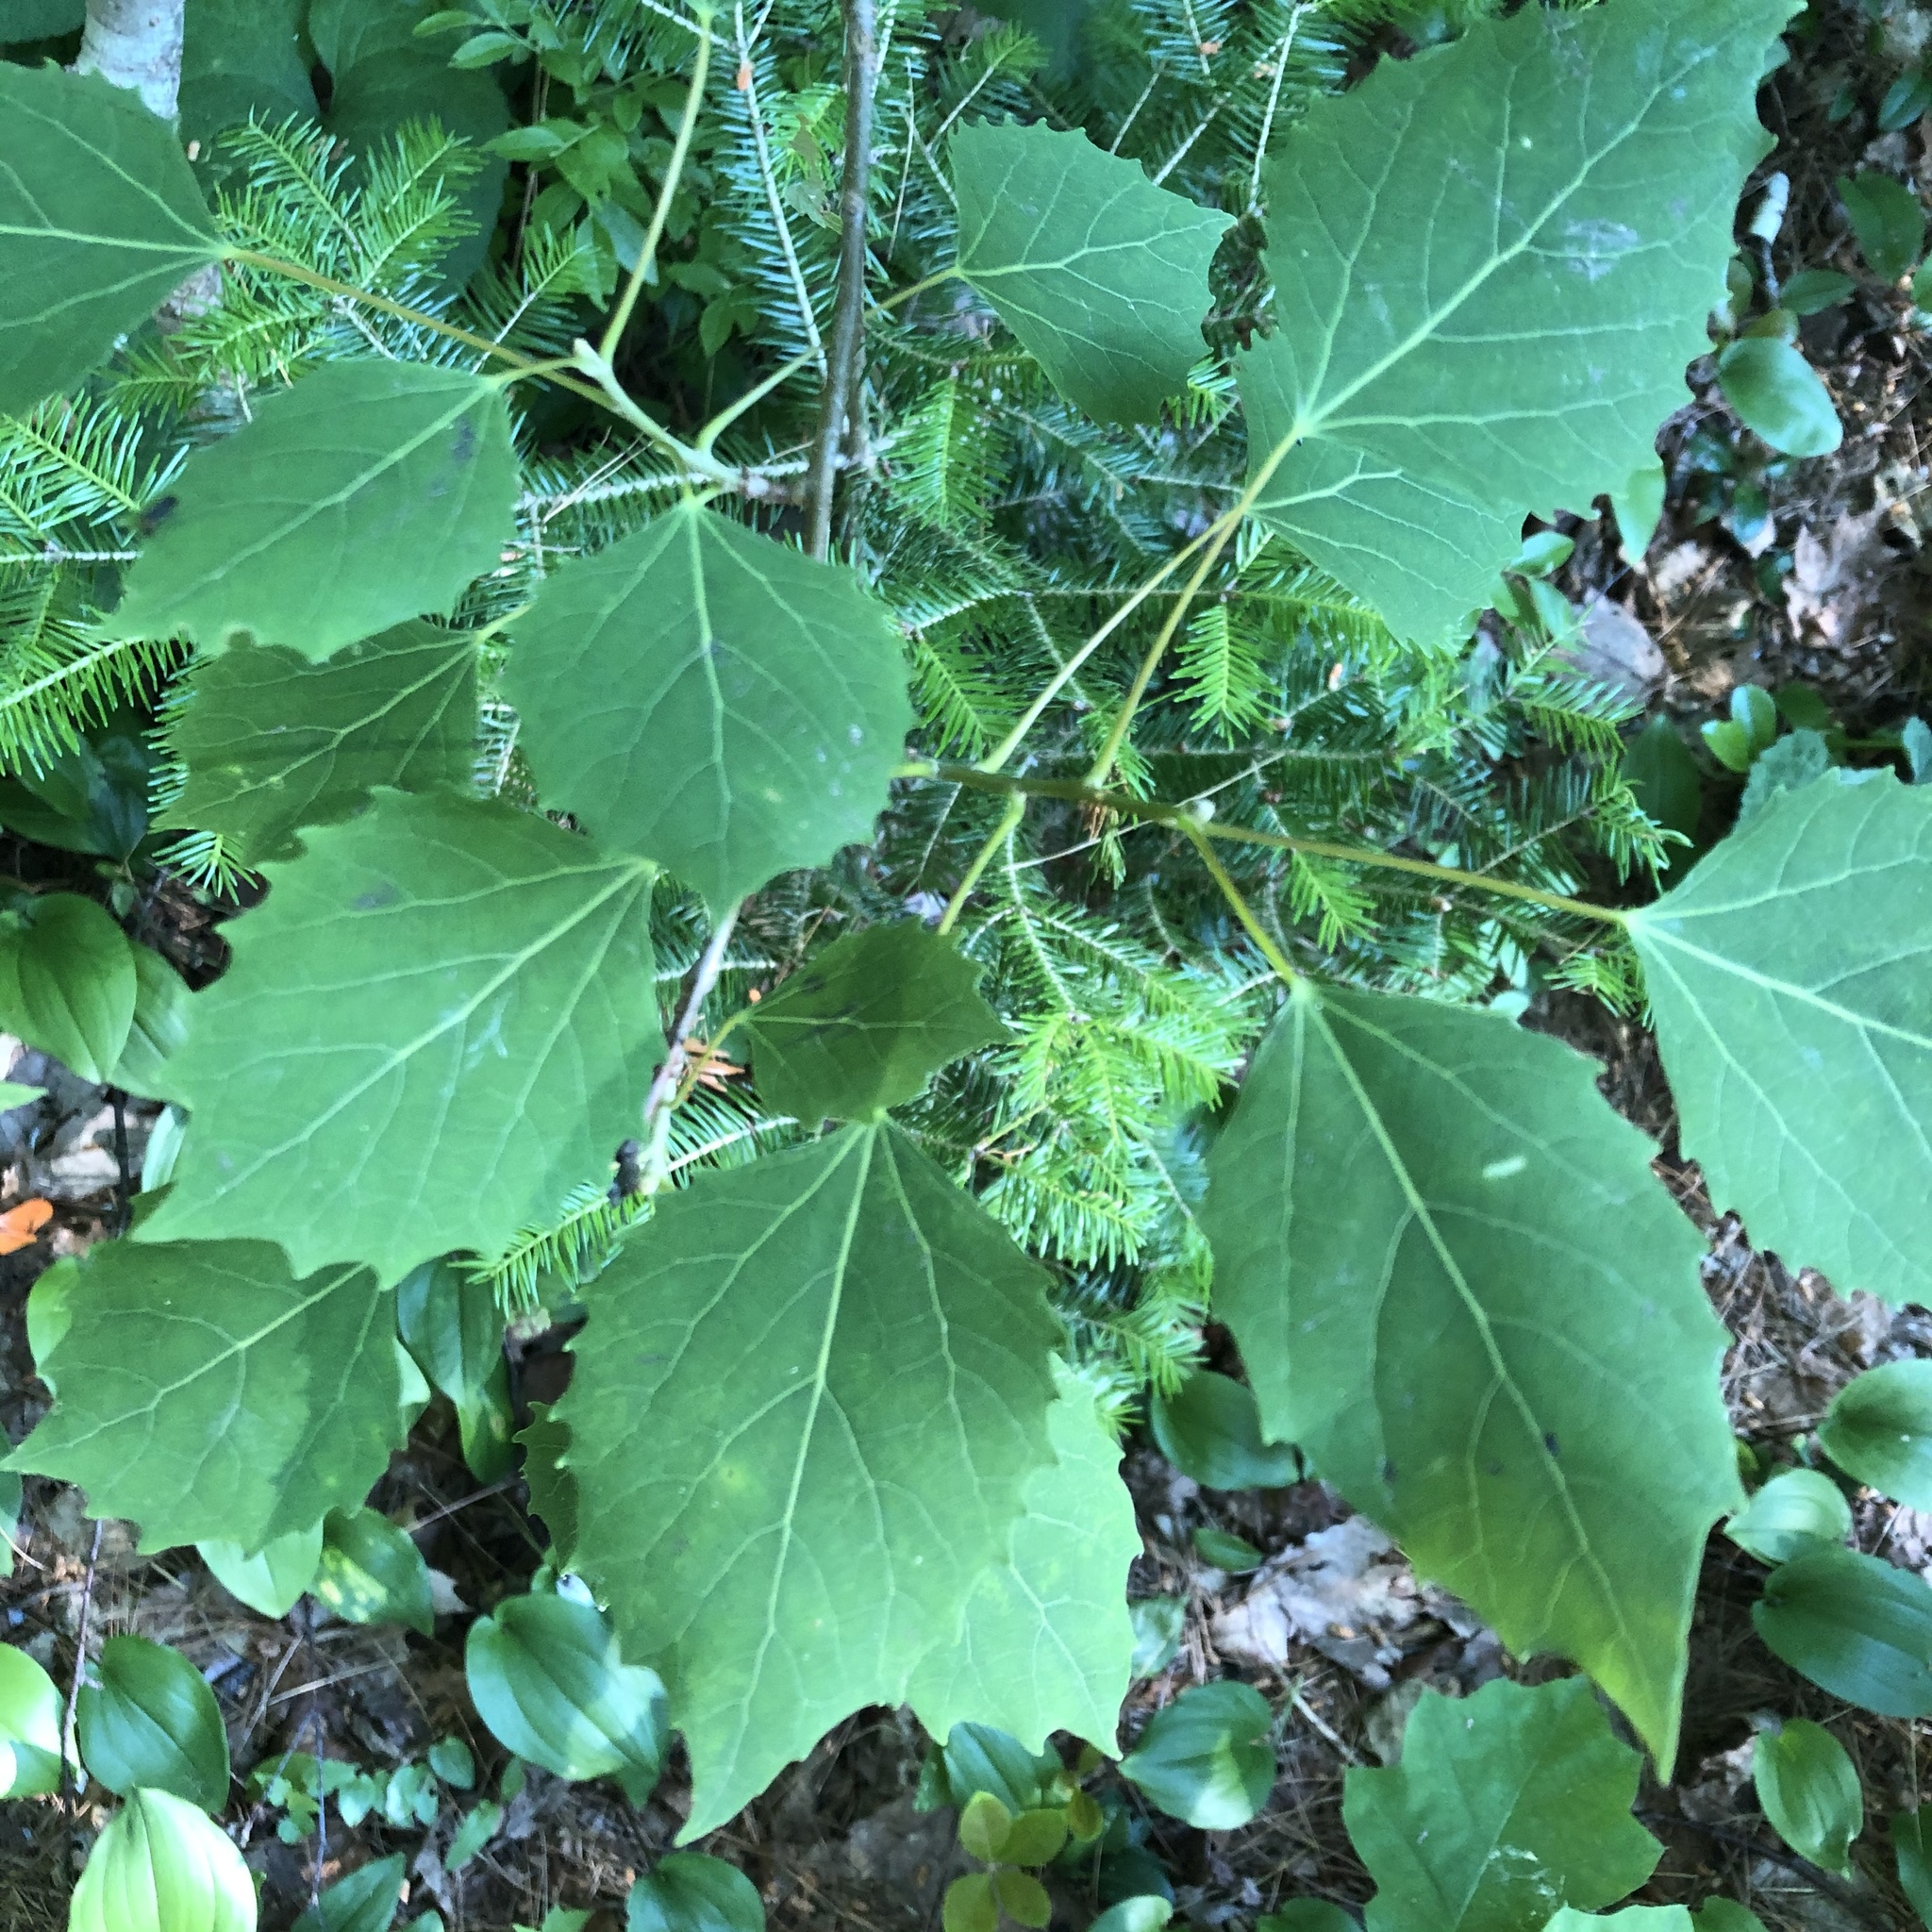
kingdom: Plantae
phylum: Tracheophyta
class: Magnoliopsida
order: Malpighiales
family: Salicaceae
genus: Populus
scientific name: Populus grandidentata
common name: Bigtooth aspen
